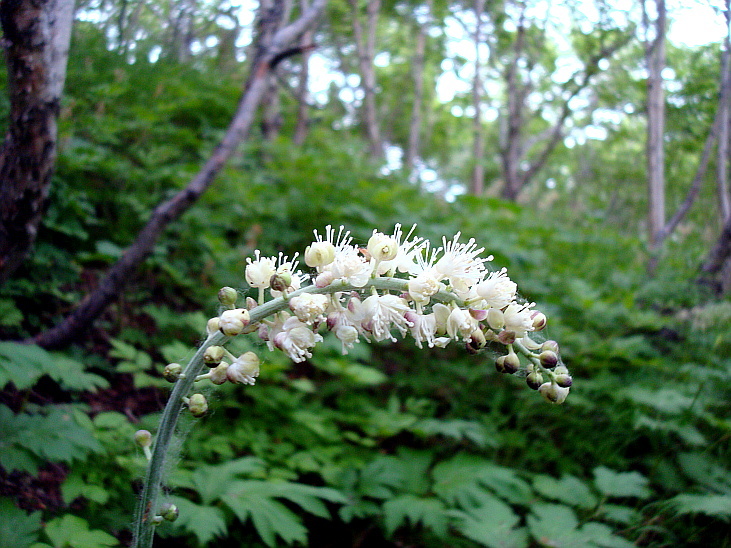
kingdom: Plantae
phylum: Tracheophyta
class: Magnoliopsida
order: Ranunculales
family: Ranunculaceae
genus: Actaea
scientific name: Actaea simplex
